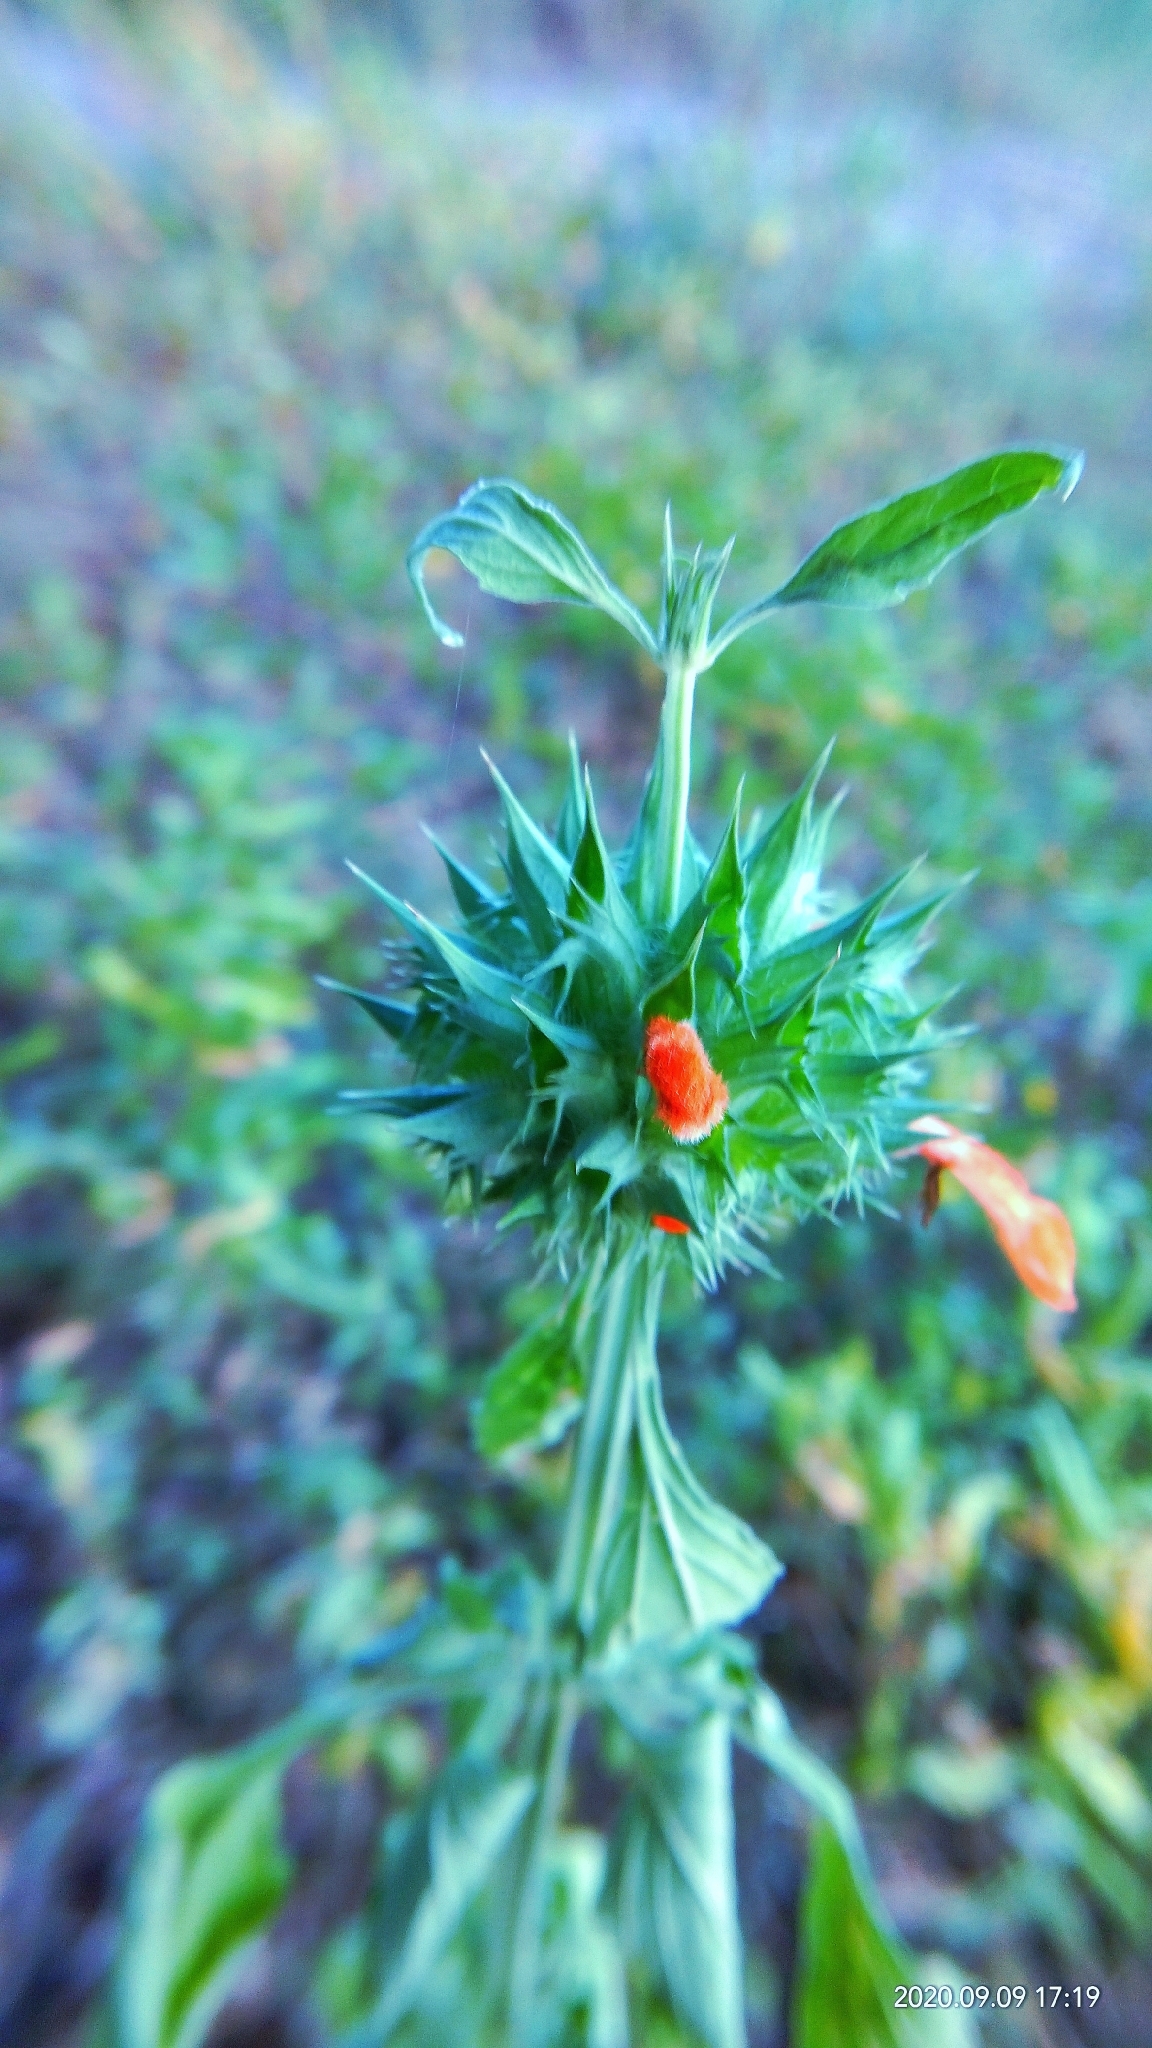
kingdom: Plantae
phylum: Tracheophyta
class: Magnoliopsida
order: Lamiales
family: Lamiaceae
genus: Leonotis
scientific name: Leonotis nepetifolia
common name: Christmas candlestick
